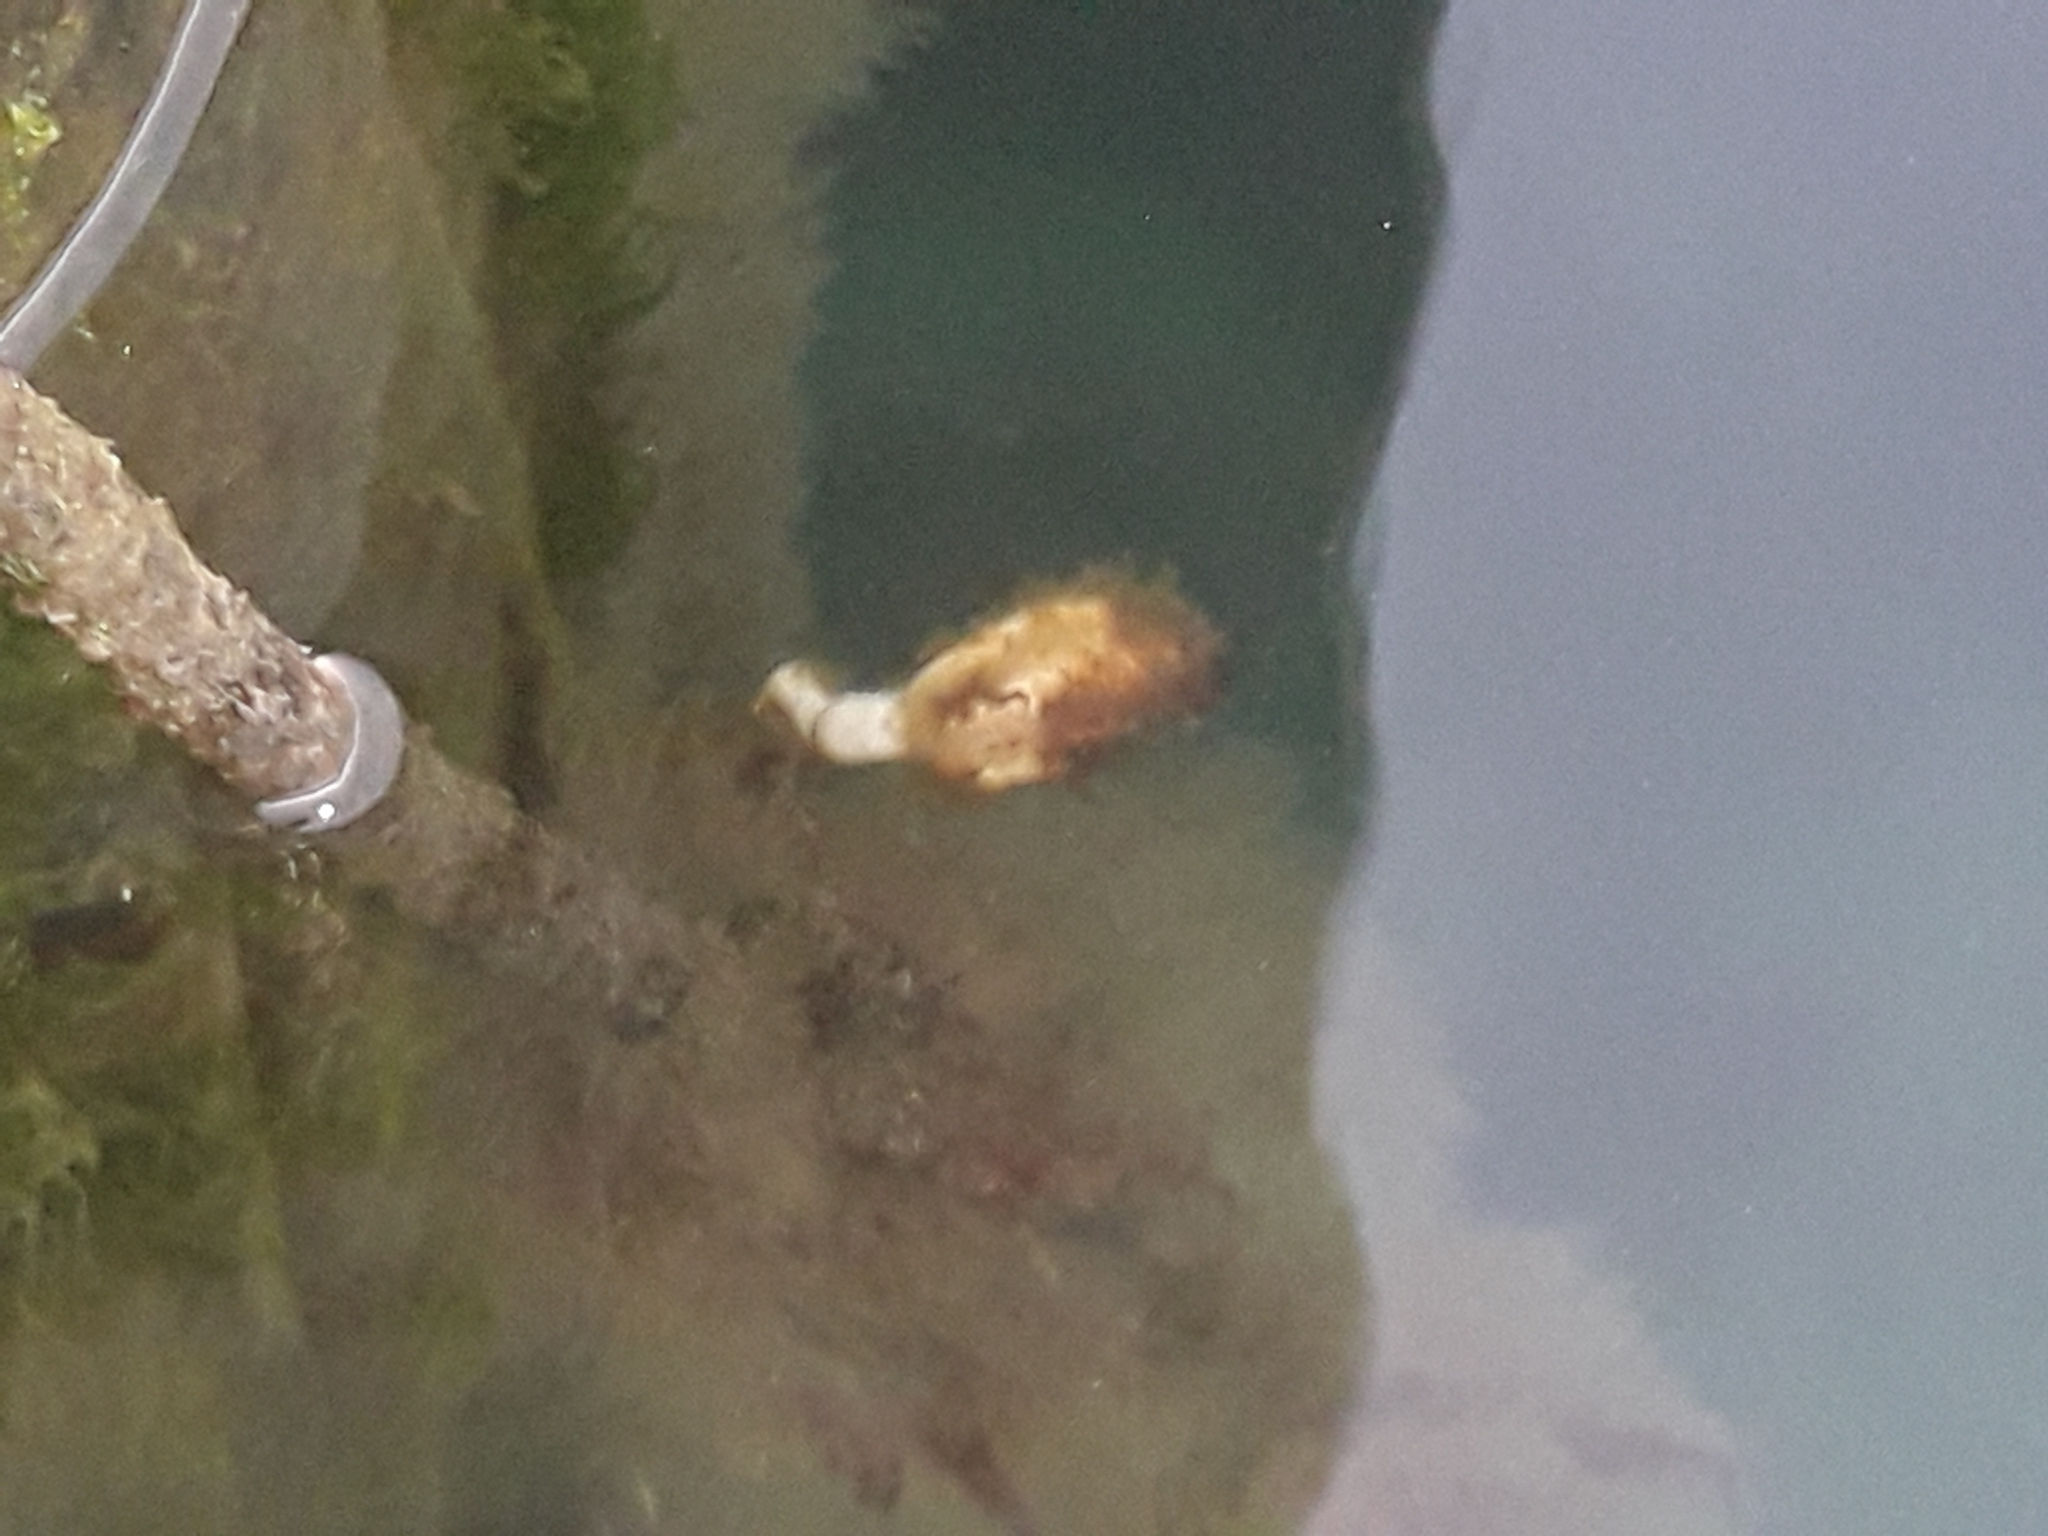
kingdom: Animalia
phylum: Chordata
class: Ascidiacea
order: Stolidobranchia
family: Pyuridae
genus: Pyura
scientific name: Pyura pachydermatina
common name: Sea tulip
